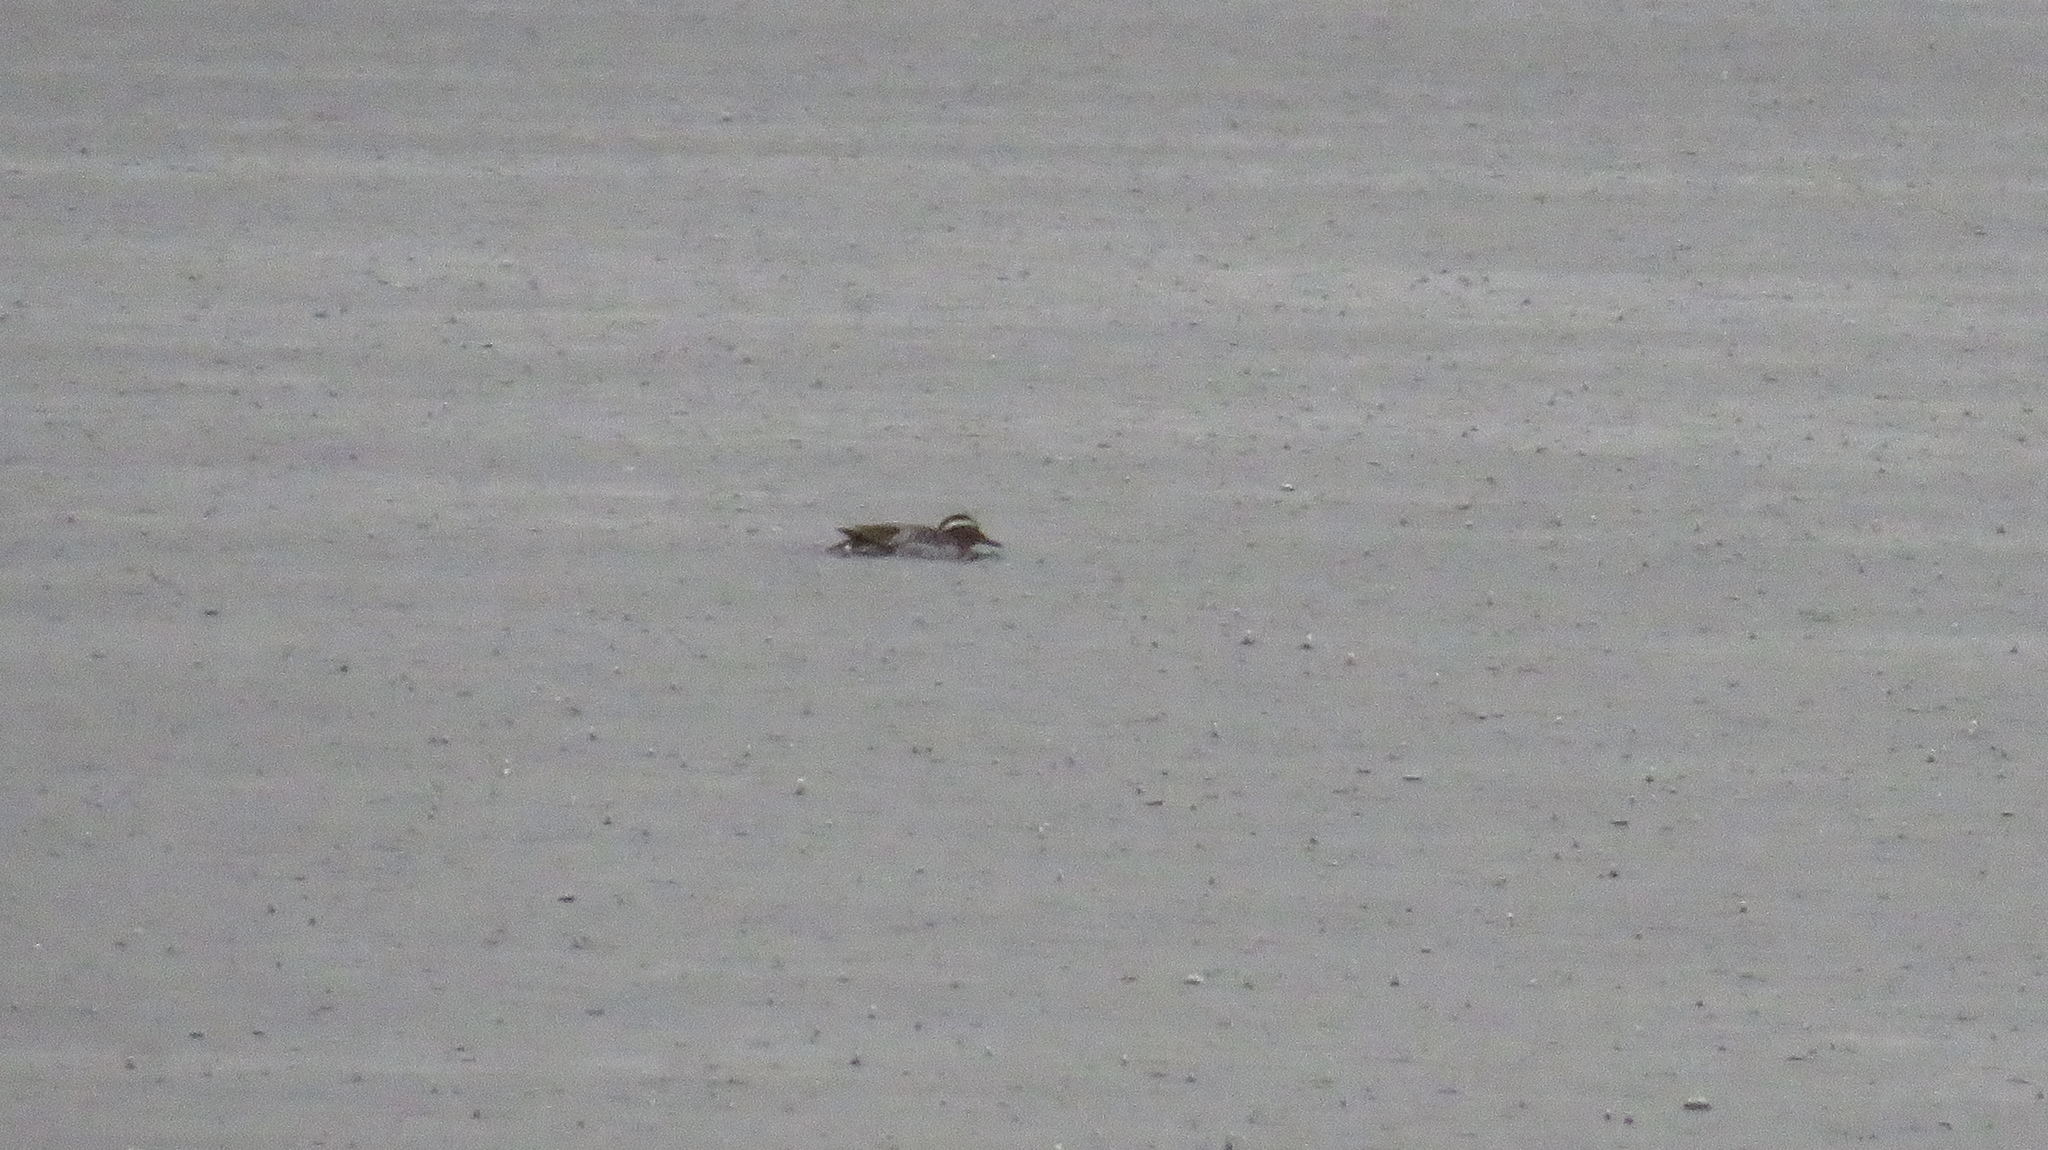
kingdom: Animalia
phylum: Chordata
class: Aves
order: Anseriformes
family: Anatidae
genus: Spatula
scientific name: Spatula querquedula
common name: Garganey
